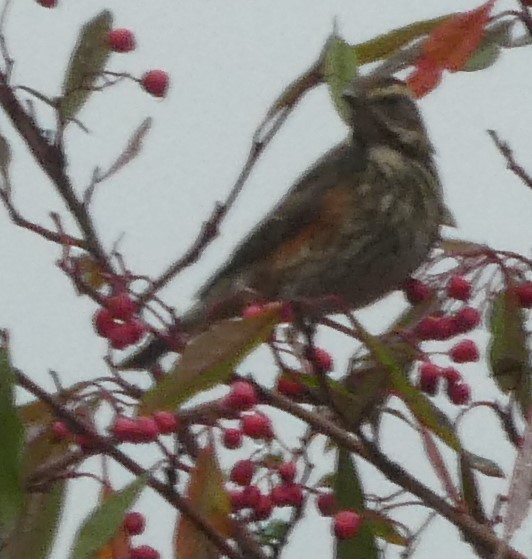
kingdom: Animalia
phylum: Chordata
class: Aves
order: Passeriformes
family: Turdidae
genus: Turdus
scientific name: Turdus iliacus
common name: Redwing
